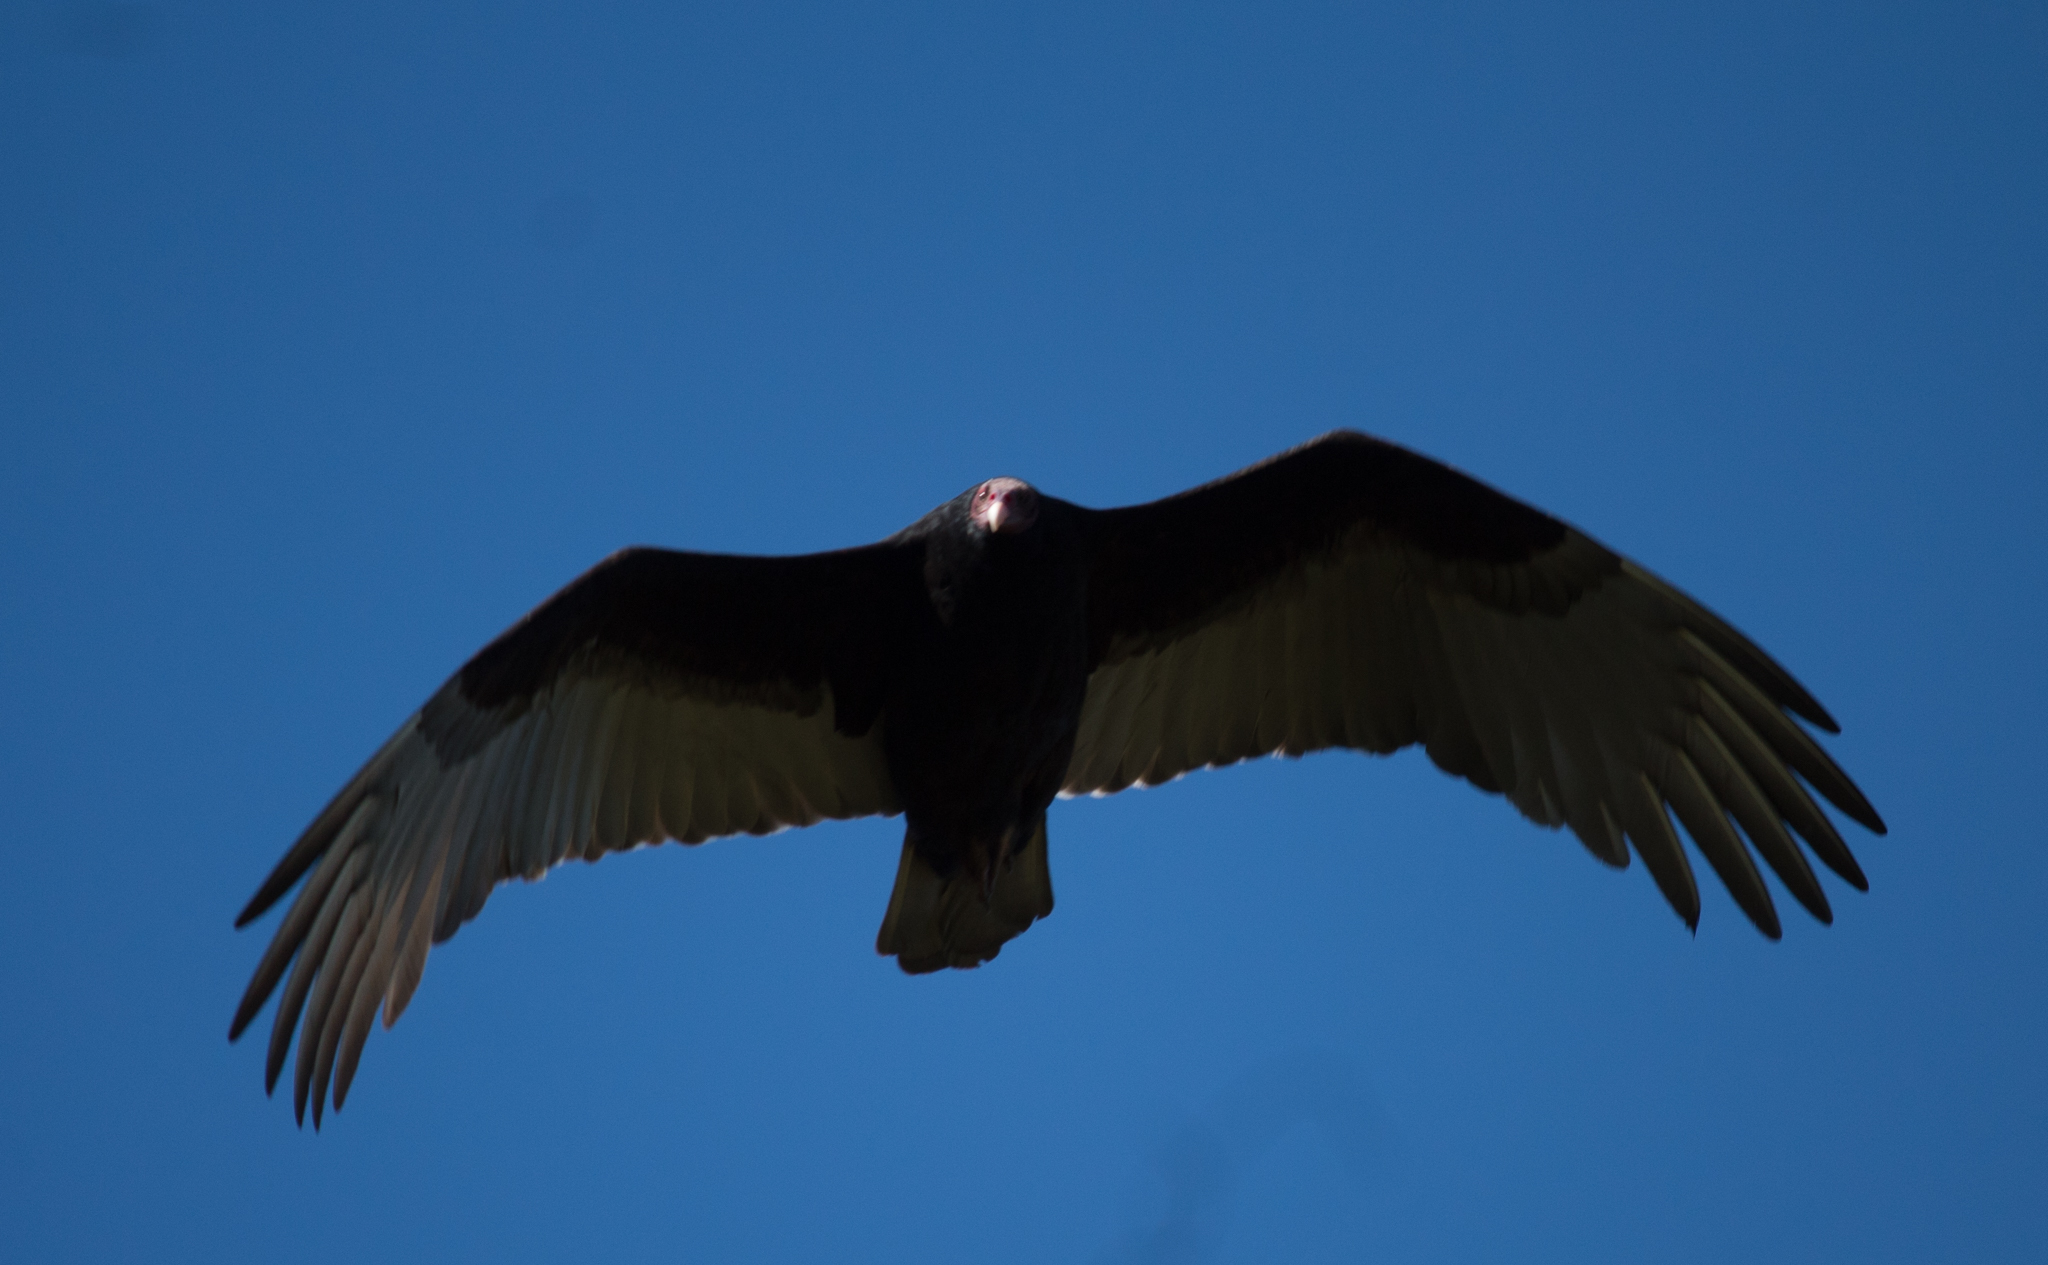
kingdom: Animalia
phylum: Chordata
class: Aves
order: Accipitriformes
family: Cathartidae
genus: Cathartes
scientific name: Cathartes aura
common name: Turkey vulture
